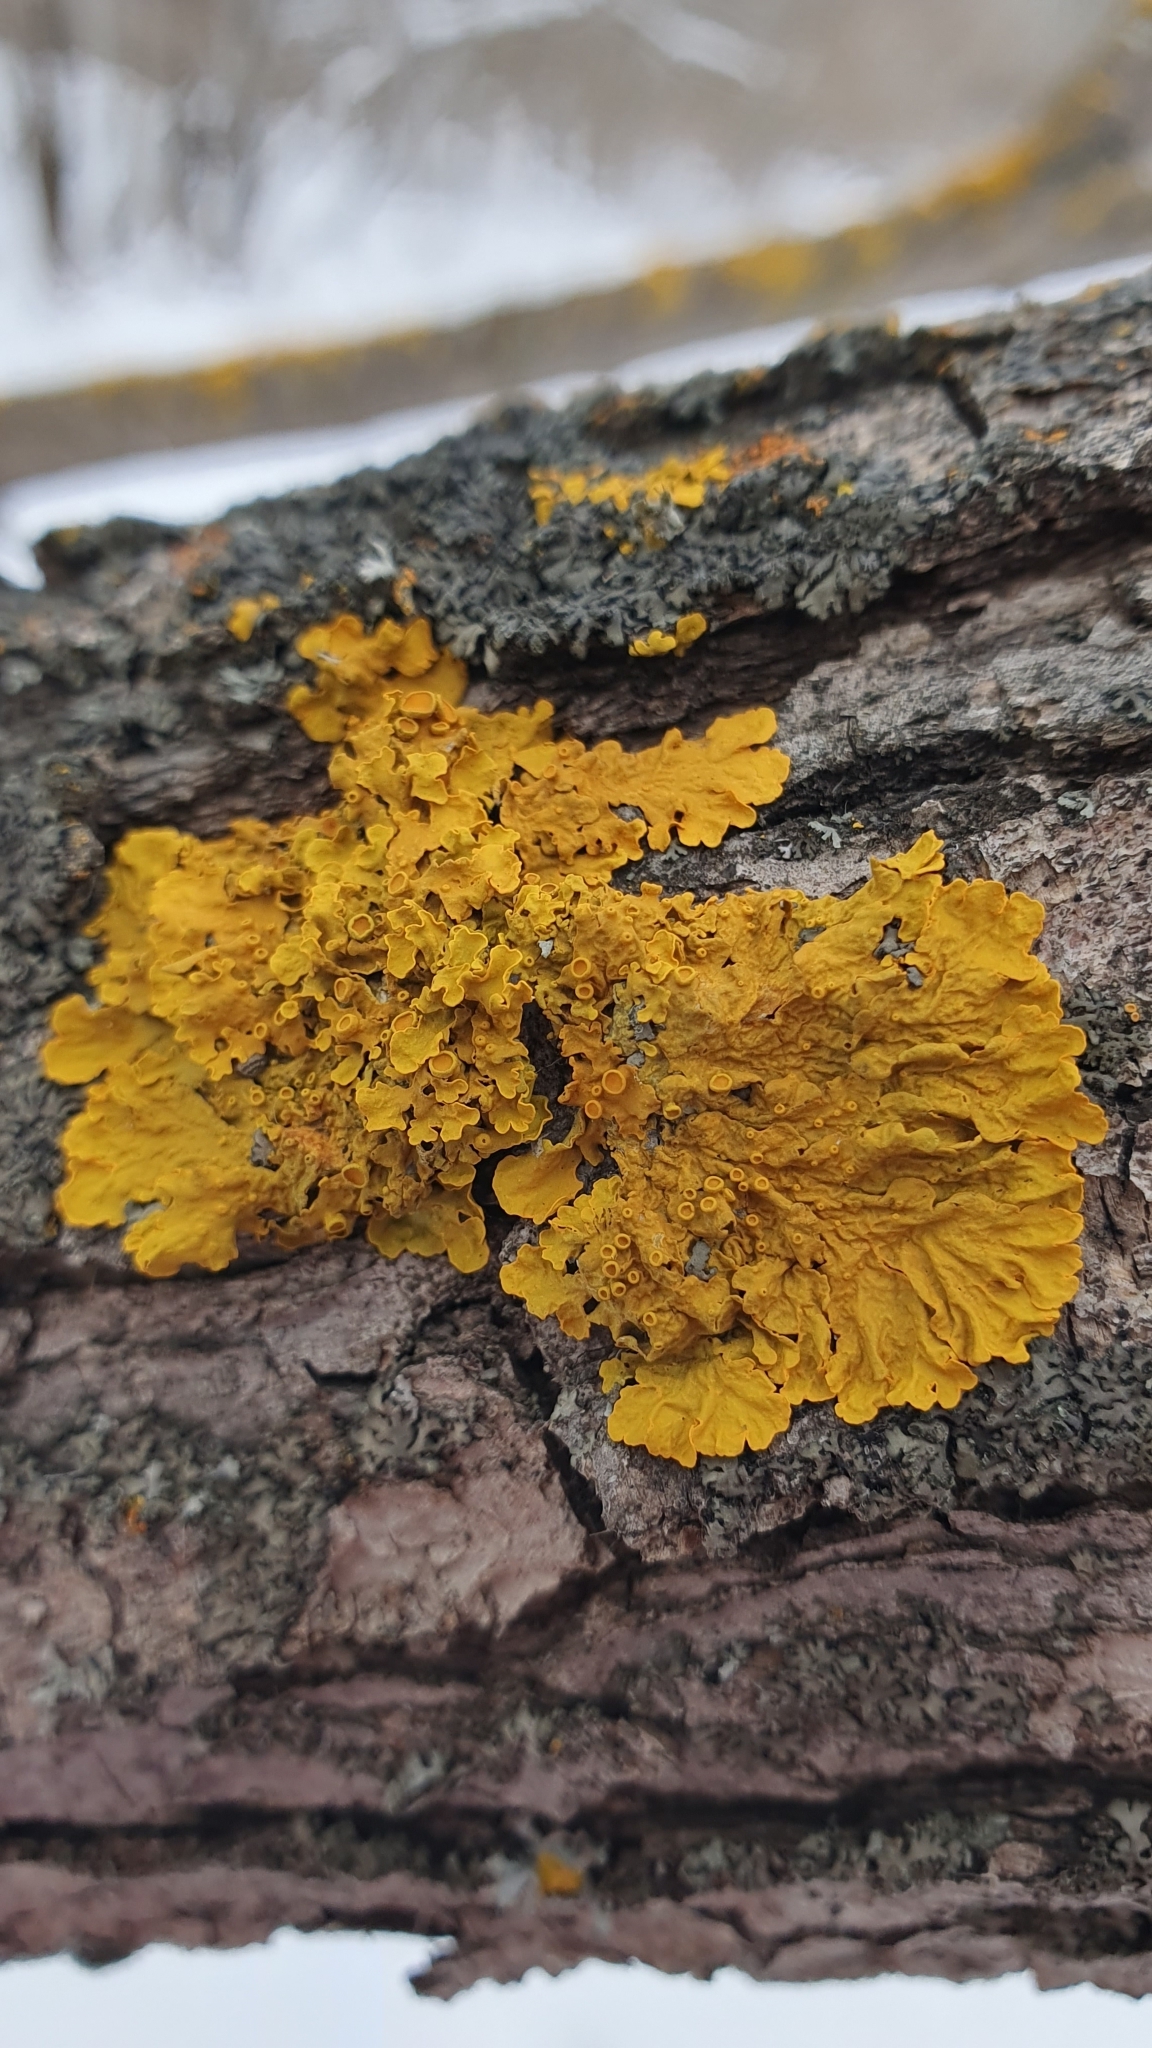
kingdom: Fungi
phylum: Ascomycota
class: Lecanoromycetes
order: Teloschistales
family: Teloschistaceae
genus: Xanthoria
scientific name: Xanthoria parietina
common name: Common orange lichen
